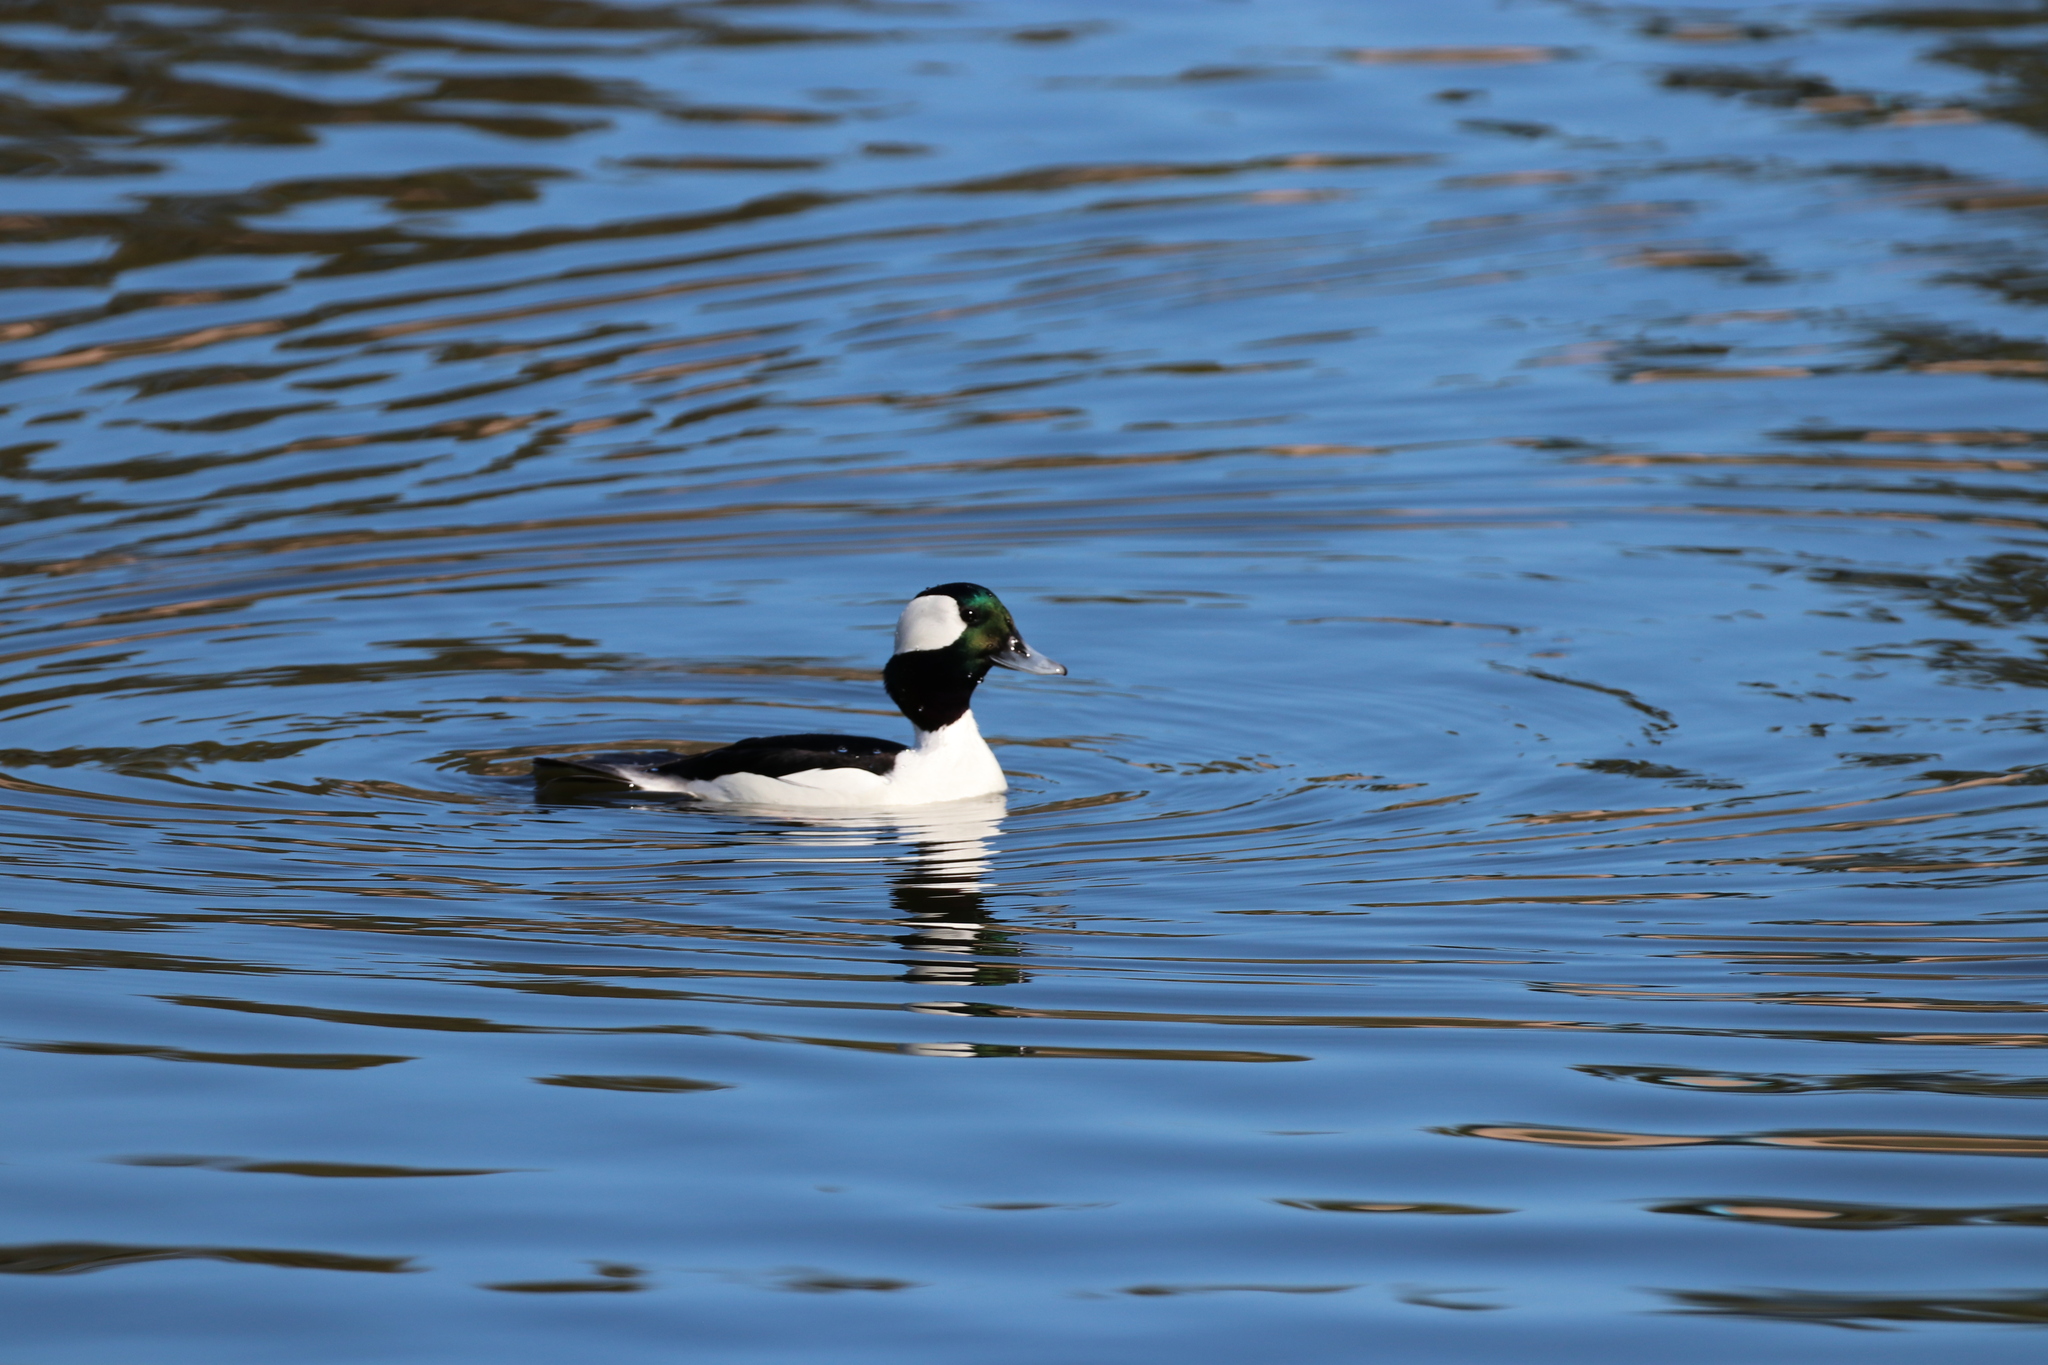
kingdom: Animalia
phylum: Chordata
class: Aves
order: Anseriformes
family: Anatidae
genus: Bucephala
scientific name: Bucephala albeola
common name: Bufflehead
